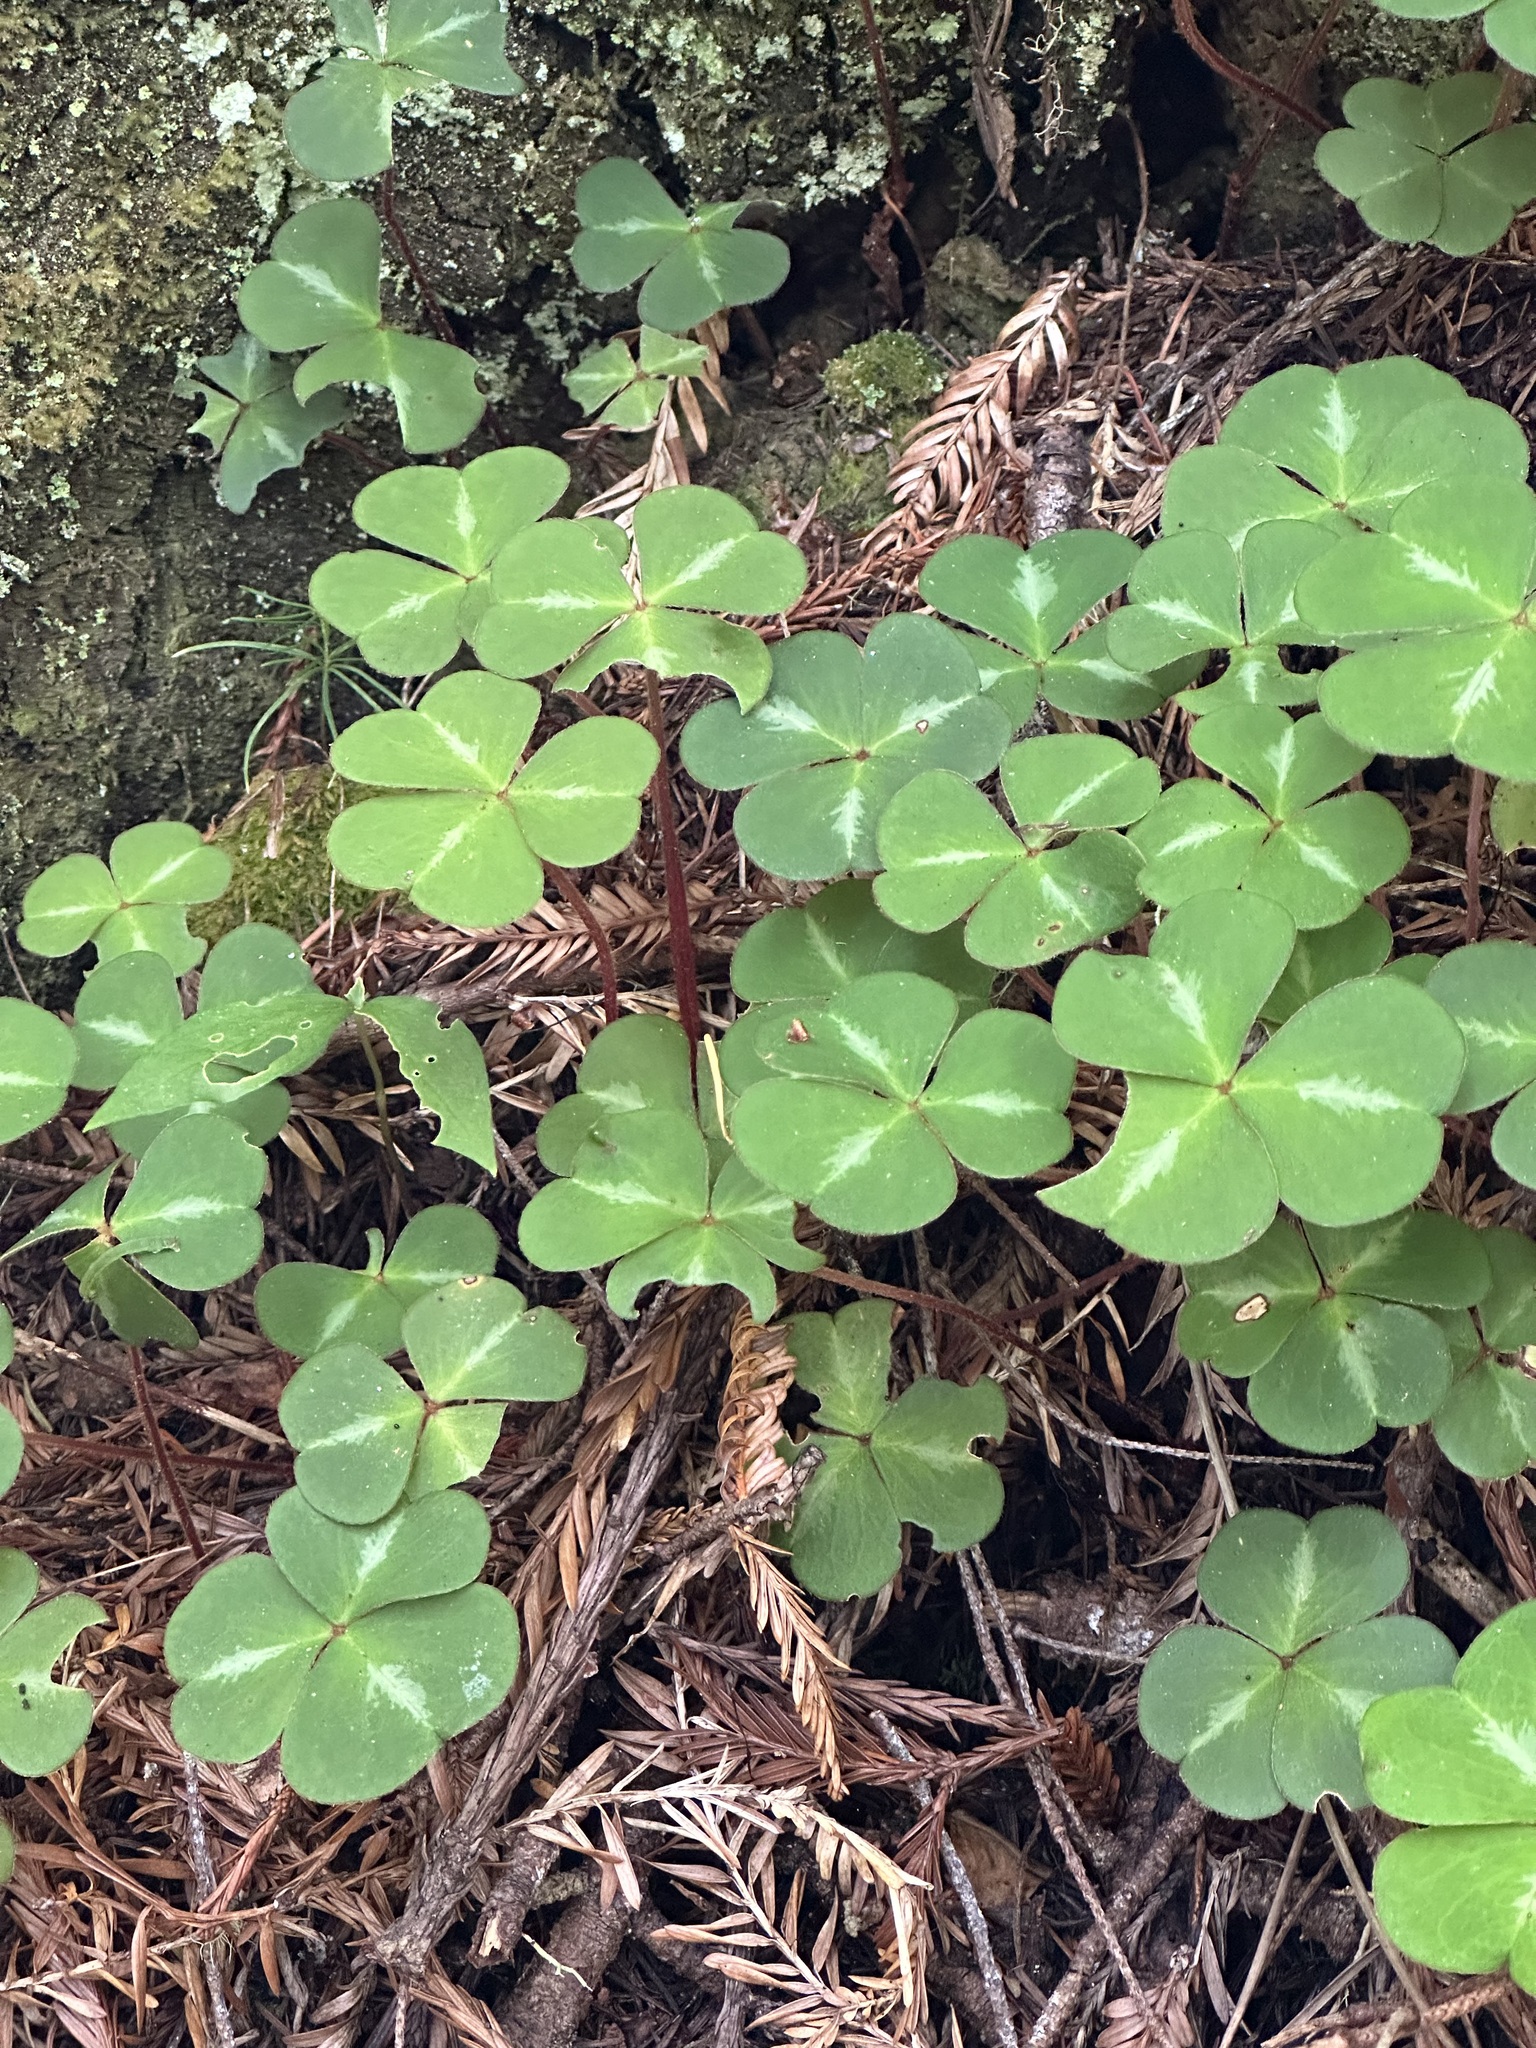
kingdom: Plantae
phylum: Tracheophyta
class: Magnoliopsida
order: Oxalidales
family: Oxalidaceae
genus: Oxalis
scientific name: Oxalis oregana
